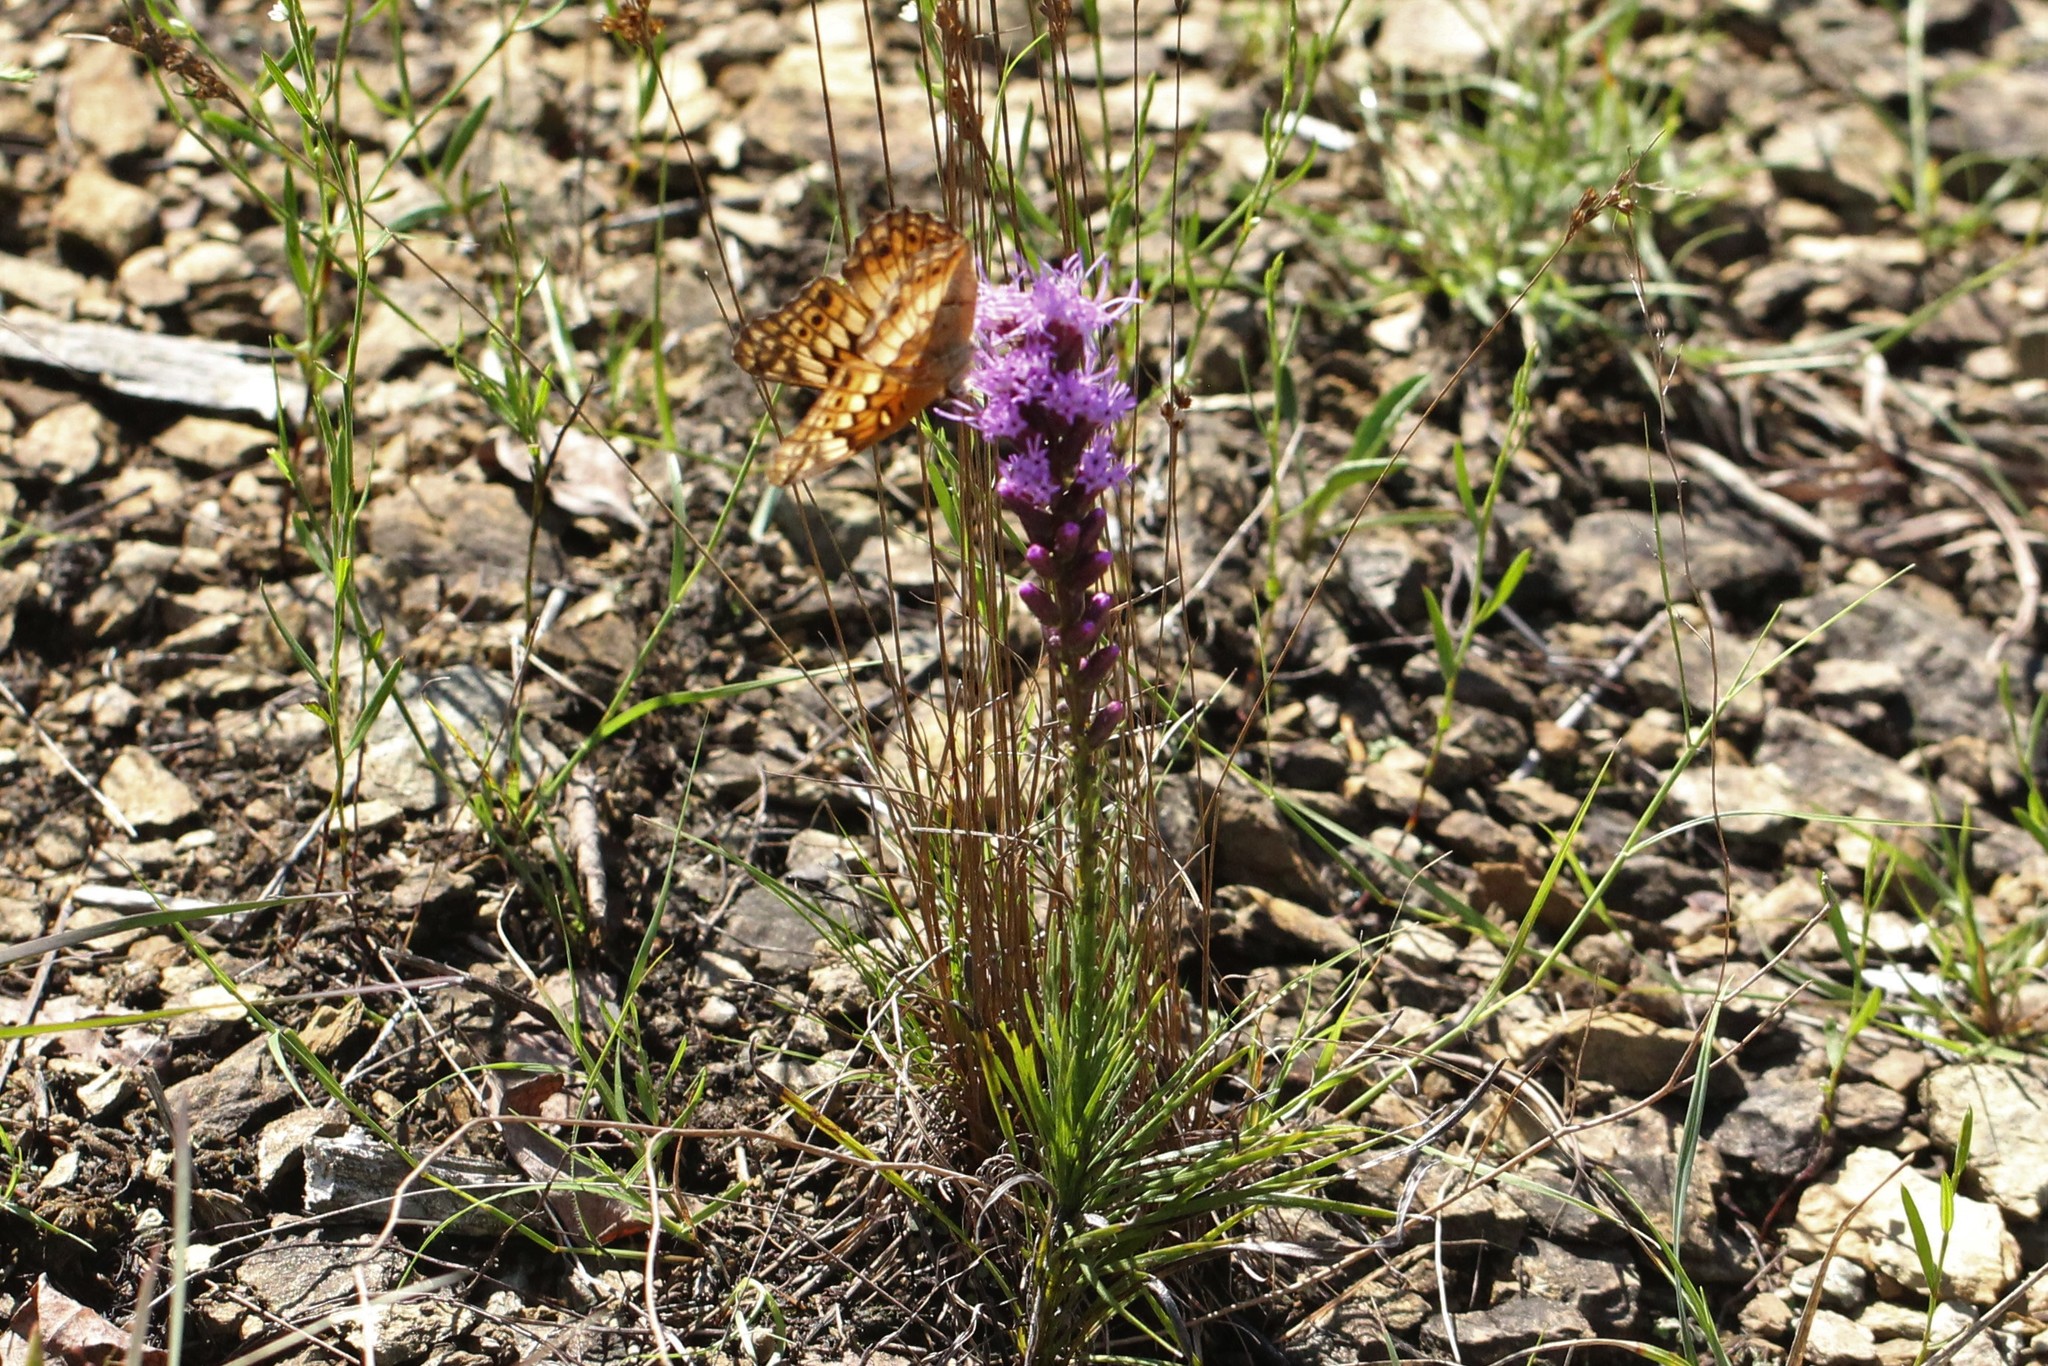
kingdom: Animalia
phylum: Arthropoda
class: Insecta
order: Lepidoptera
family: Nymphalidae
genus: Euptoieta
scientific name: Euptoieta claudia
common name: Variegated fritillary
